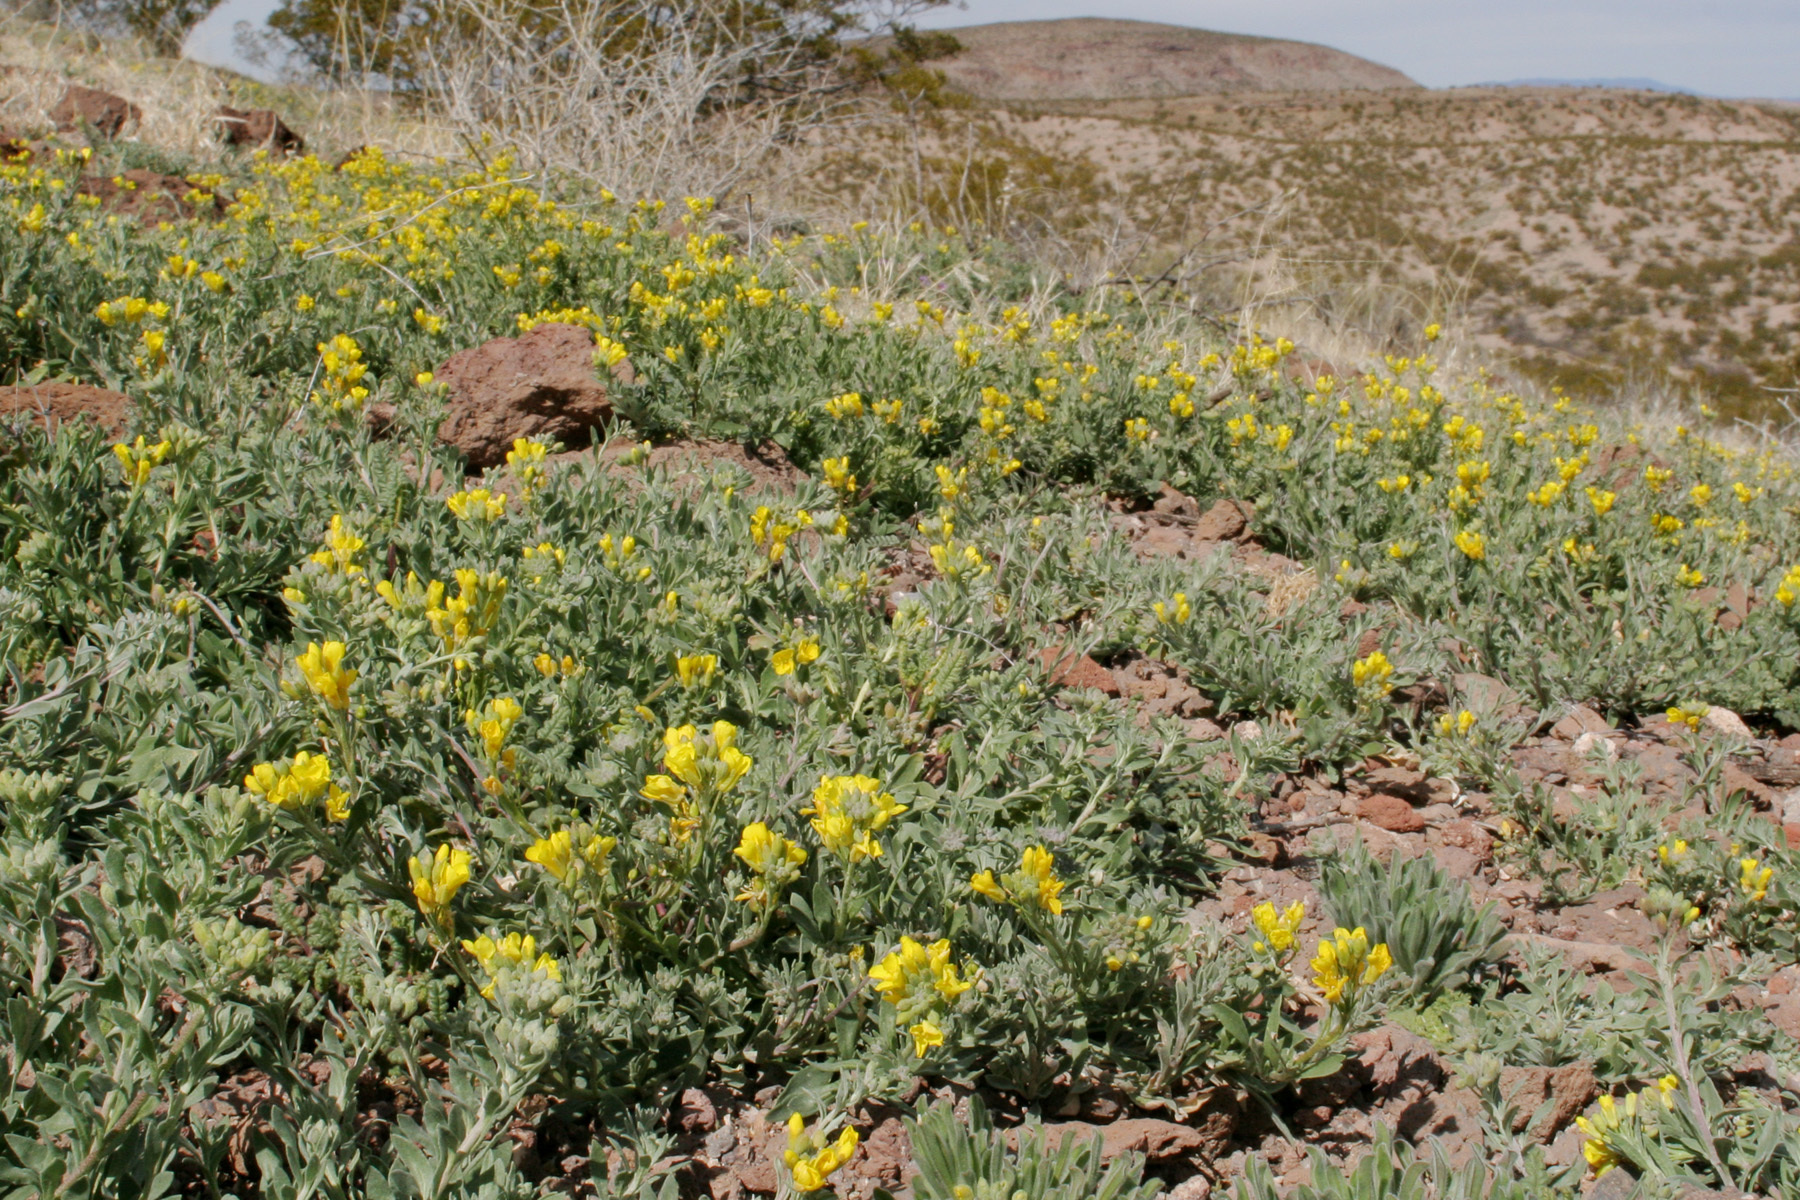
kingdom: Plantae
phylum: Tracheophyta
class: Magnoliopsida
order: Brassicales
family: Brassicaceae
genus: Physaria
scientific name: Physaria gordonii
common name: Gordon's bladderpod
